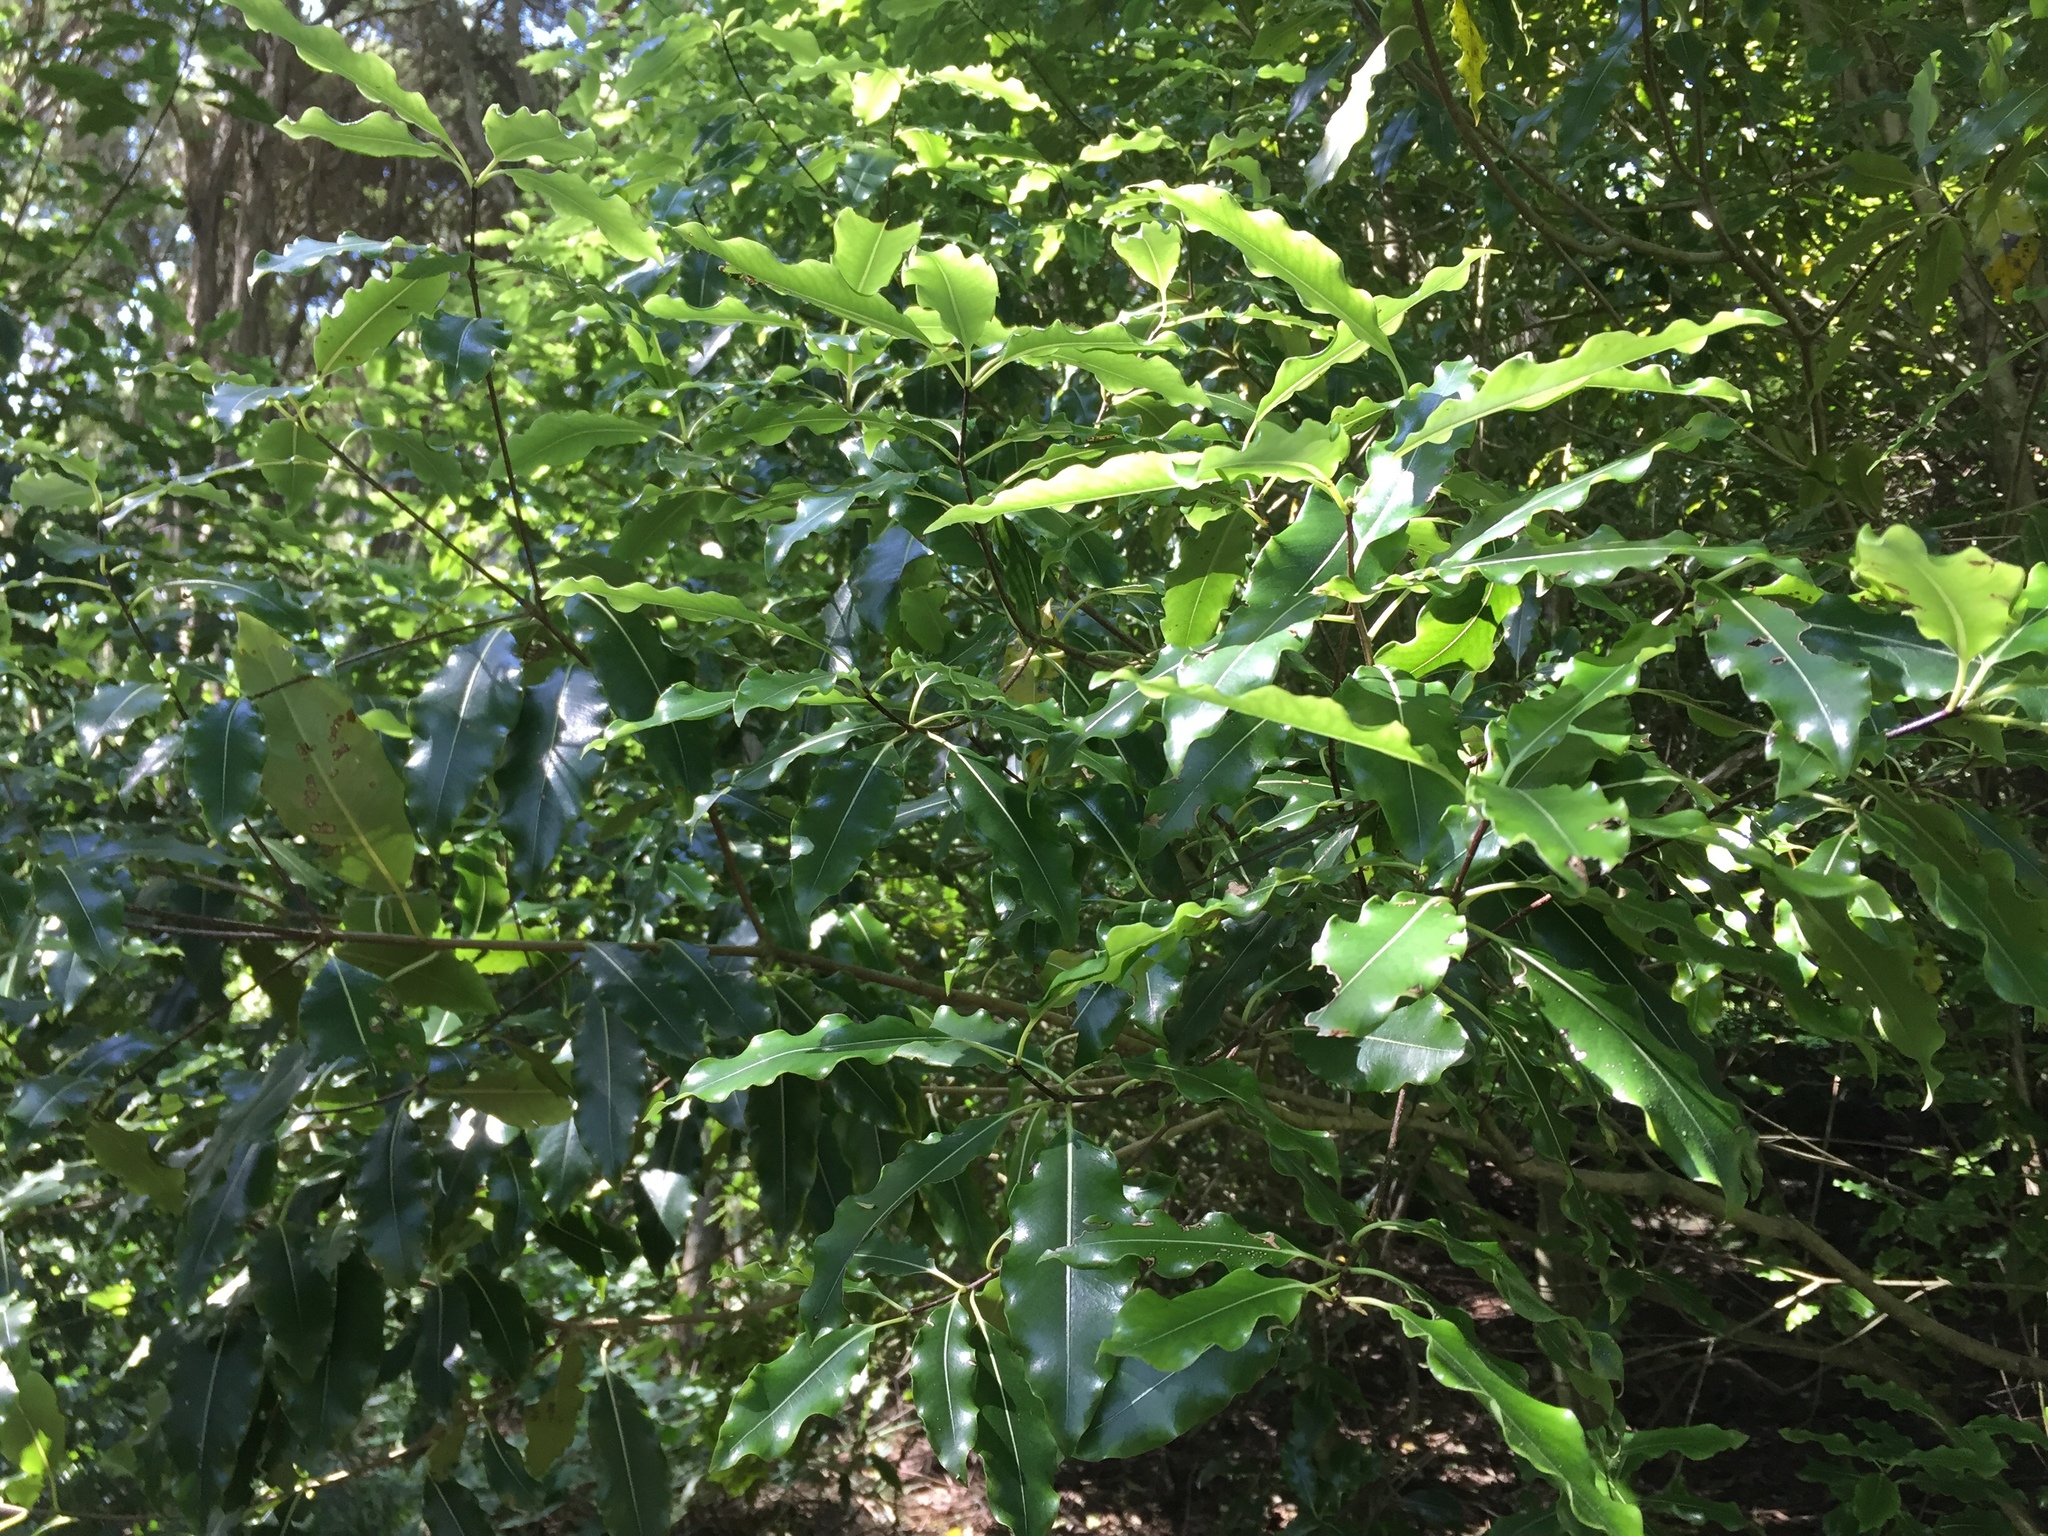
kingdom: Plantae
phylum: Tracheophyta
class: Magnoliopsida
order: Apiales
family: Pittosporaceae
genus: Pittosporum
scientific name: Pittosporum eugenioides
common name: Lemonwood
